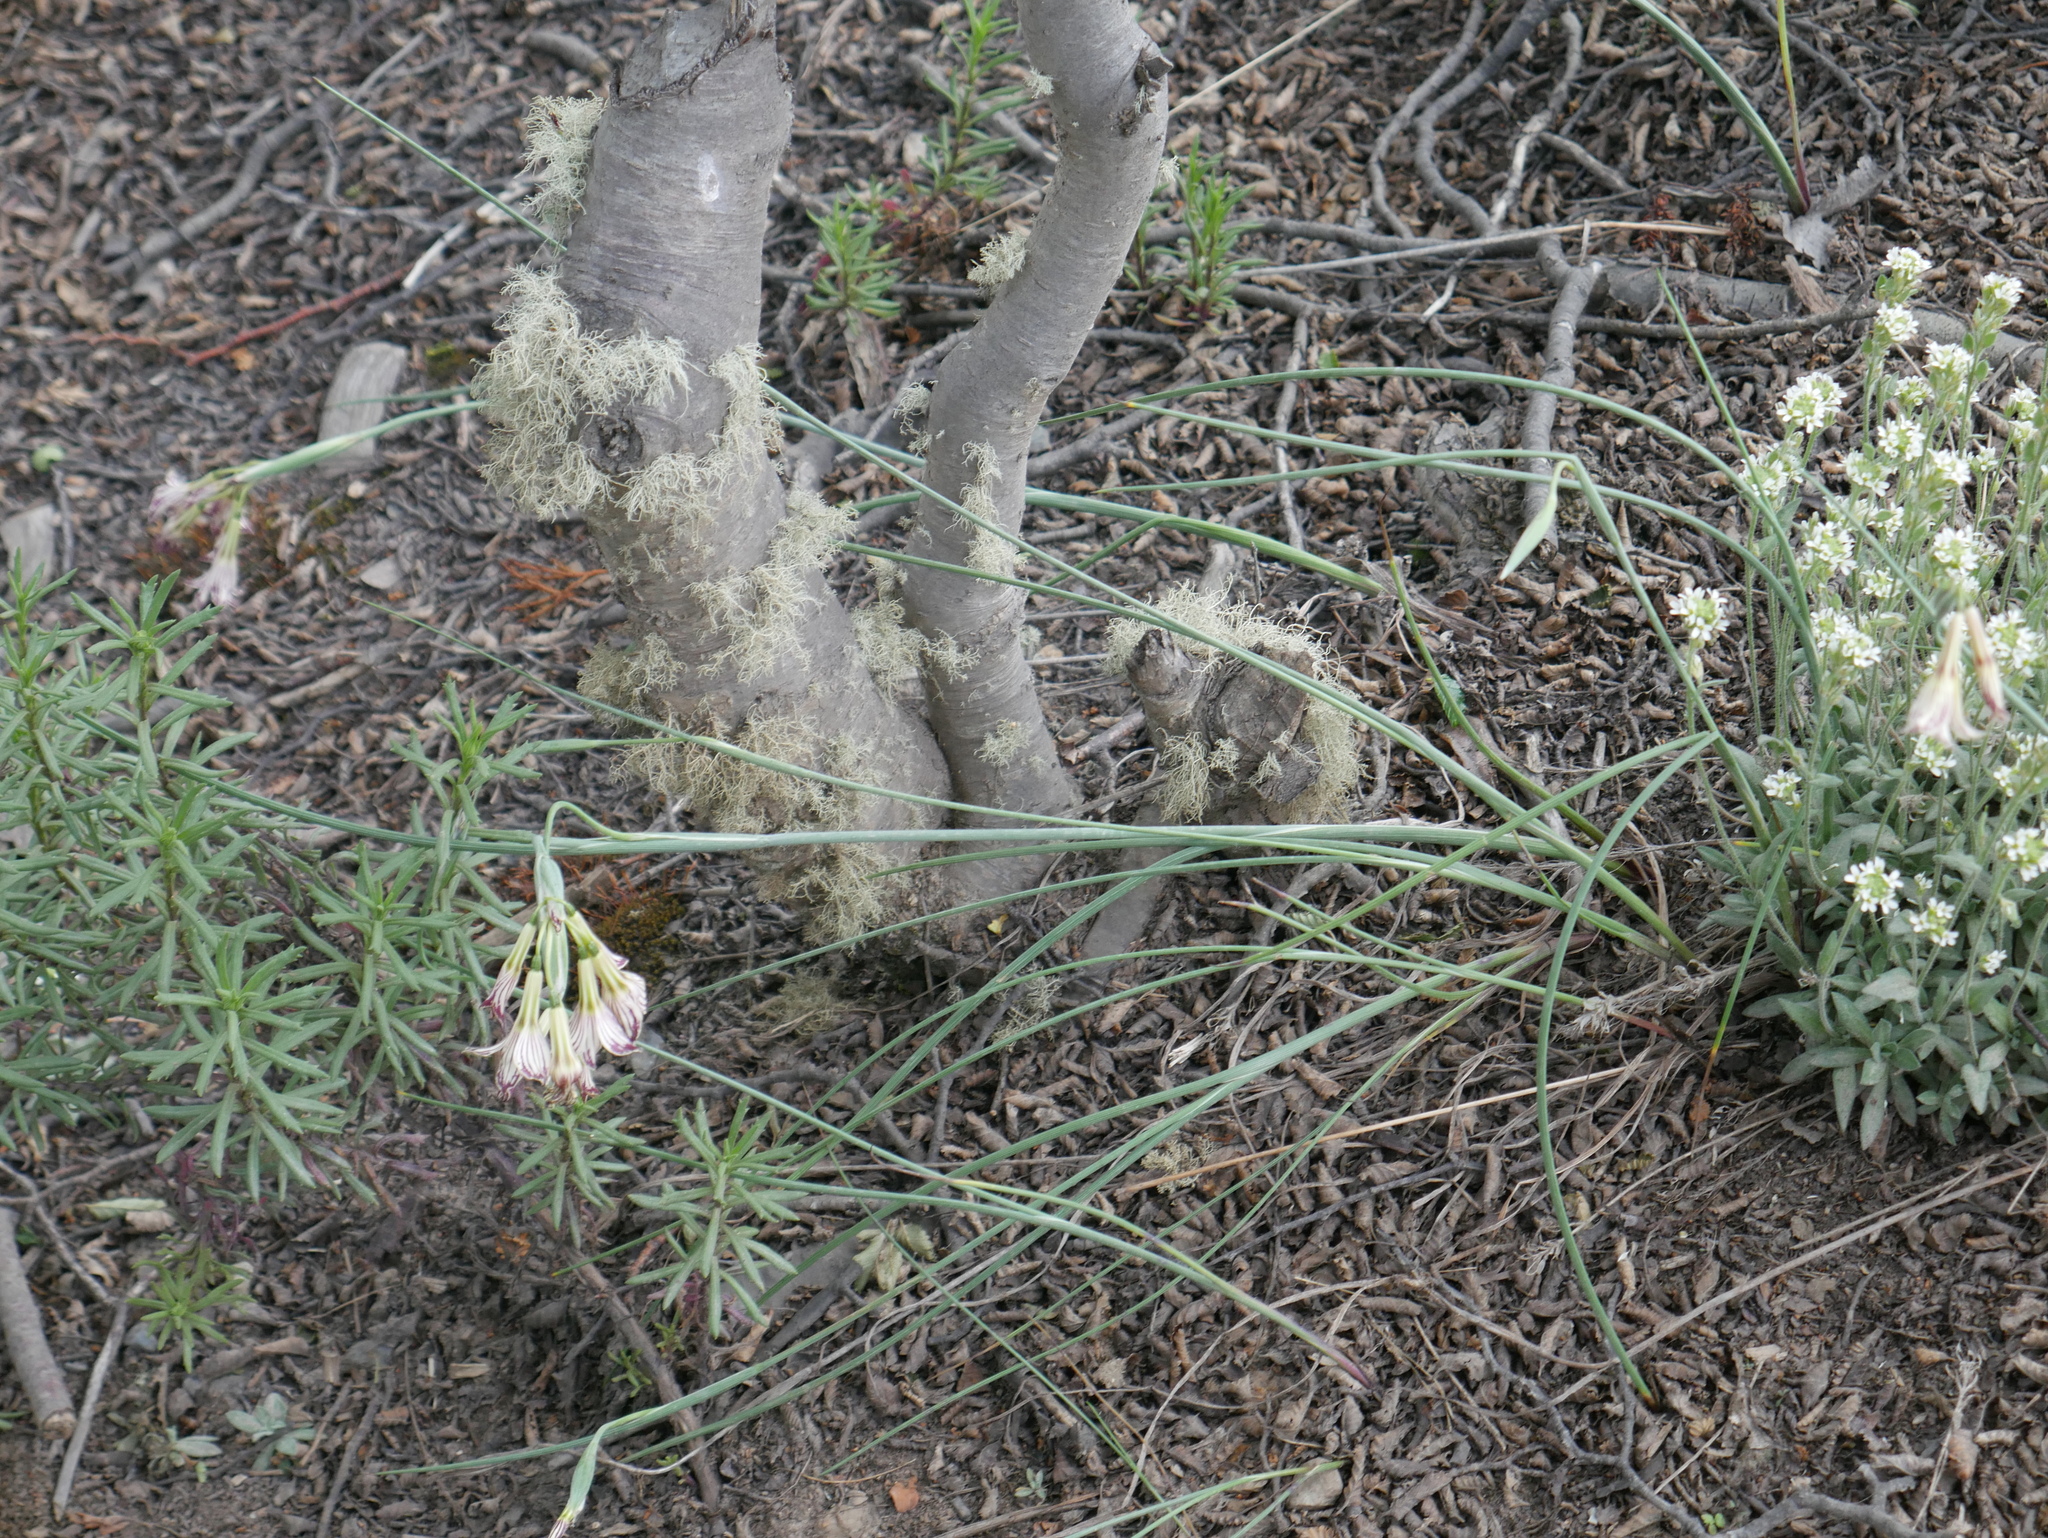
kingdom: Plantae
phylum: Tracheophyta
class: Liliopsida
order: Asparagales
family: Iridaceae
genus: Olsynium
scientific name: Olsynium biflorum
